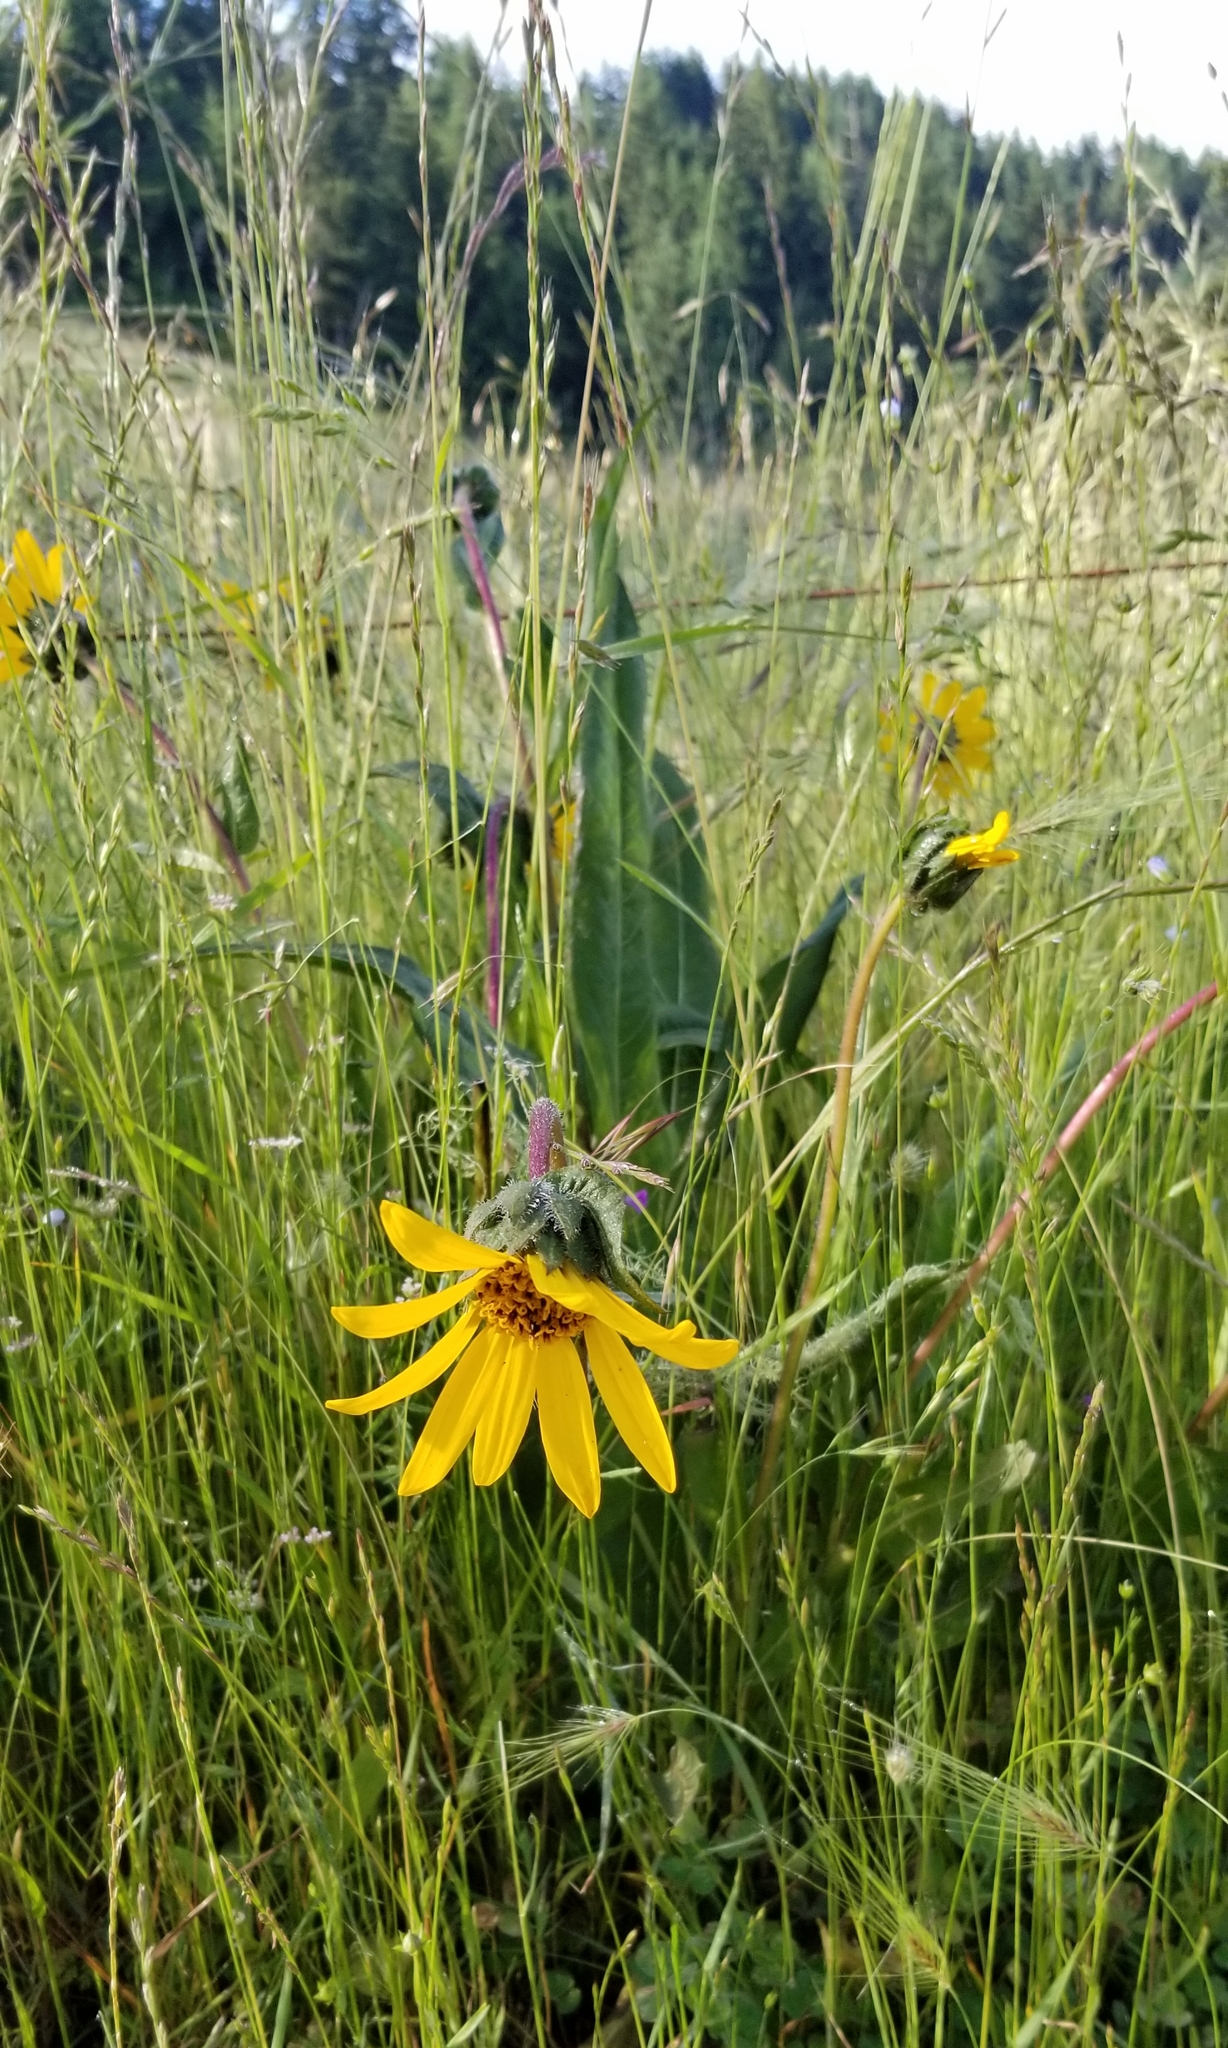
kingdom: Plantae
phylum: Tracheophyta
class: Magnoliopsida
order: Asterales
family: Asteraceae
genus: Wyethia
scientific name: Wyethia angustifolia
